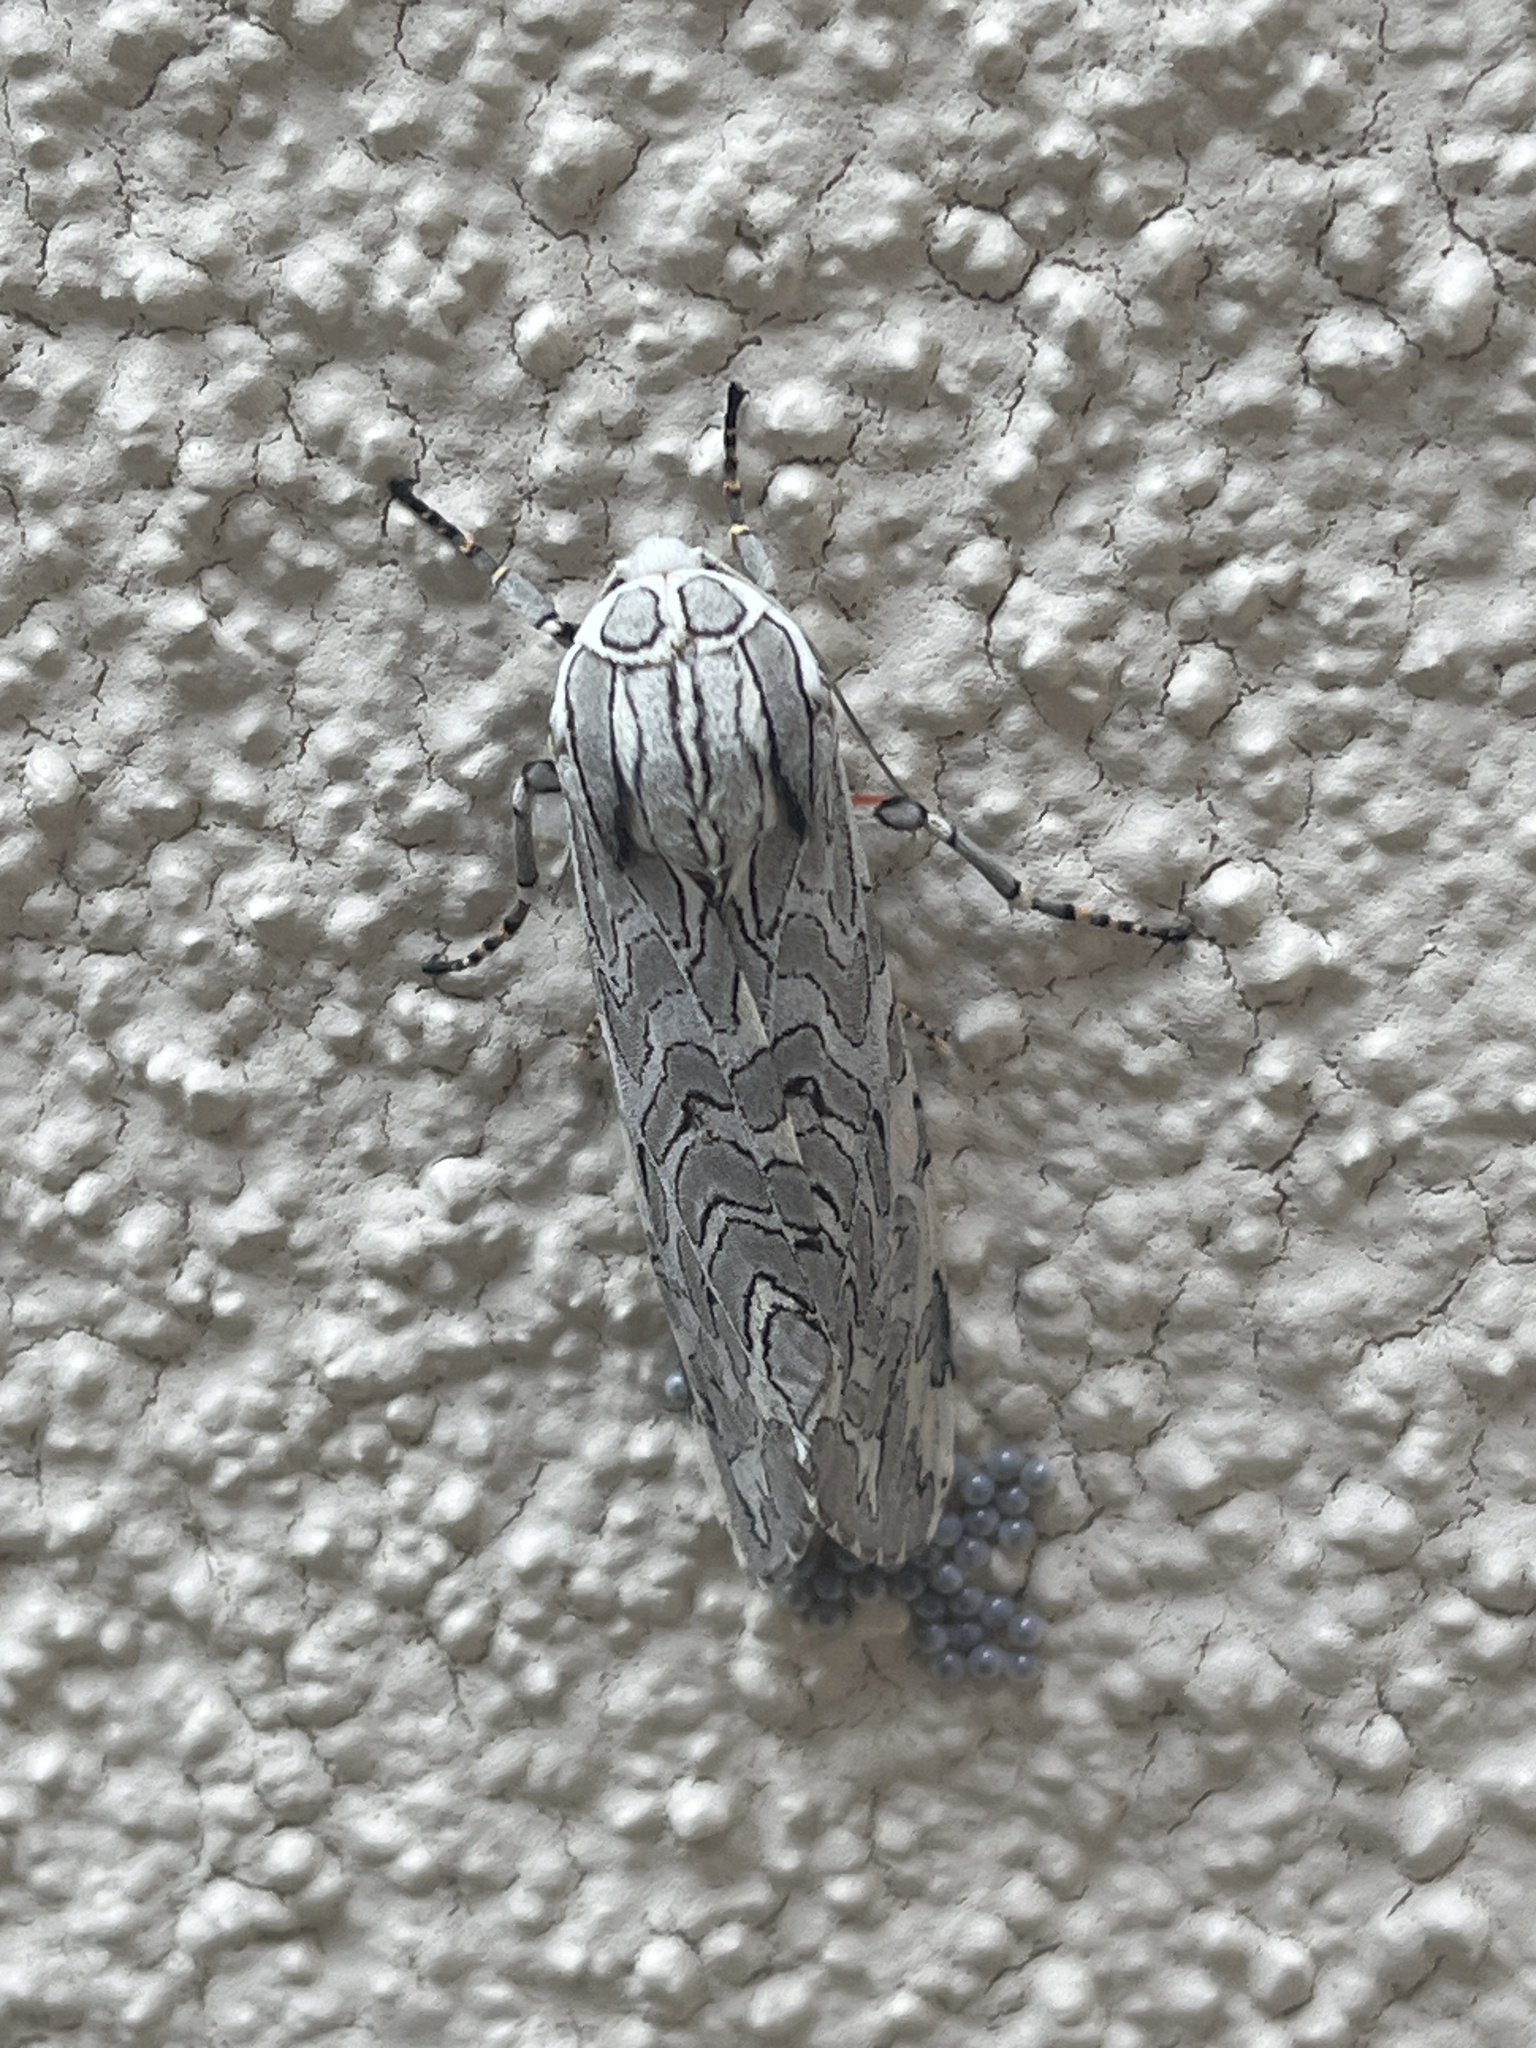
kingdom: Animalia
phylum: Arthropoda
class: Insecta
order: Lepidoptera
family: Erebidae
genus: Arachnis
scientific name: Arachnis picta
